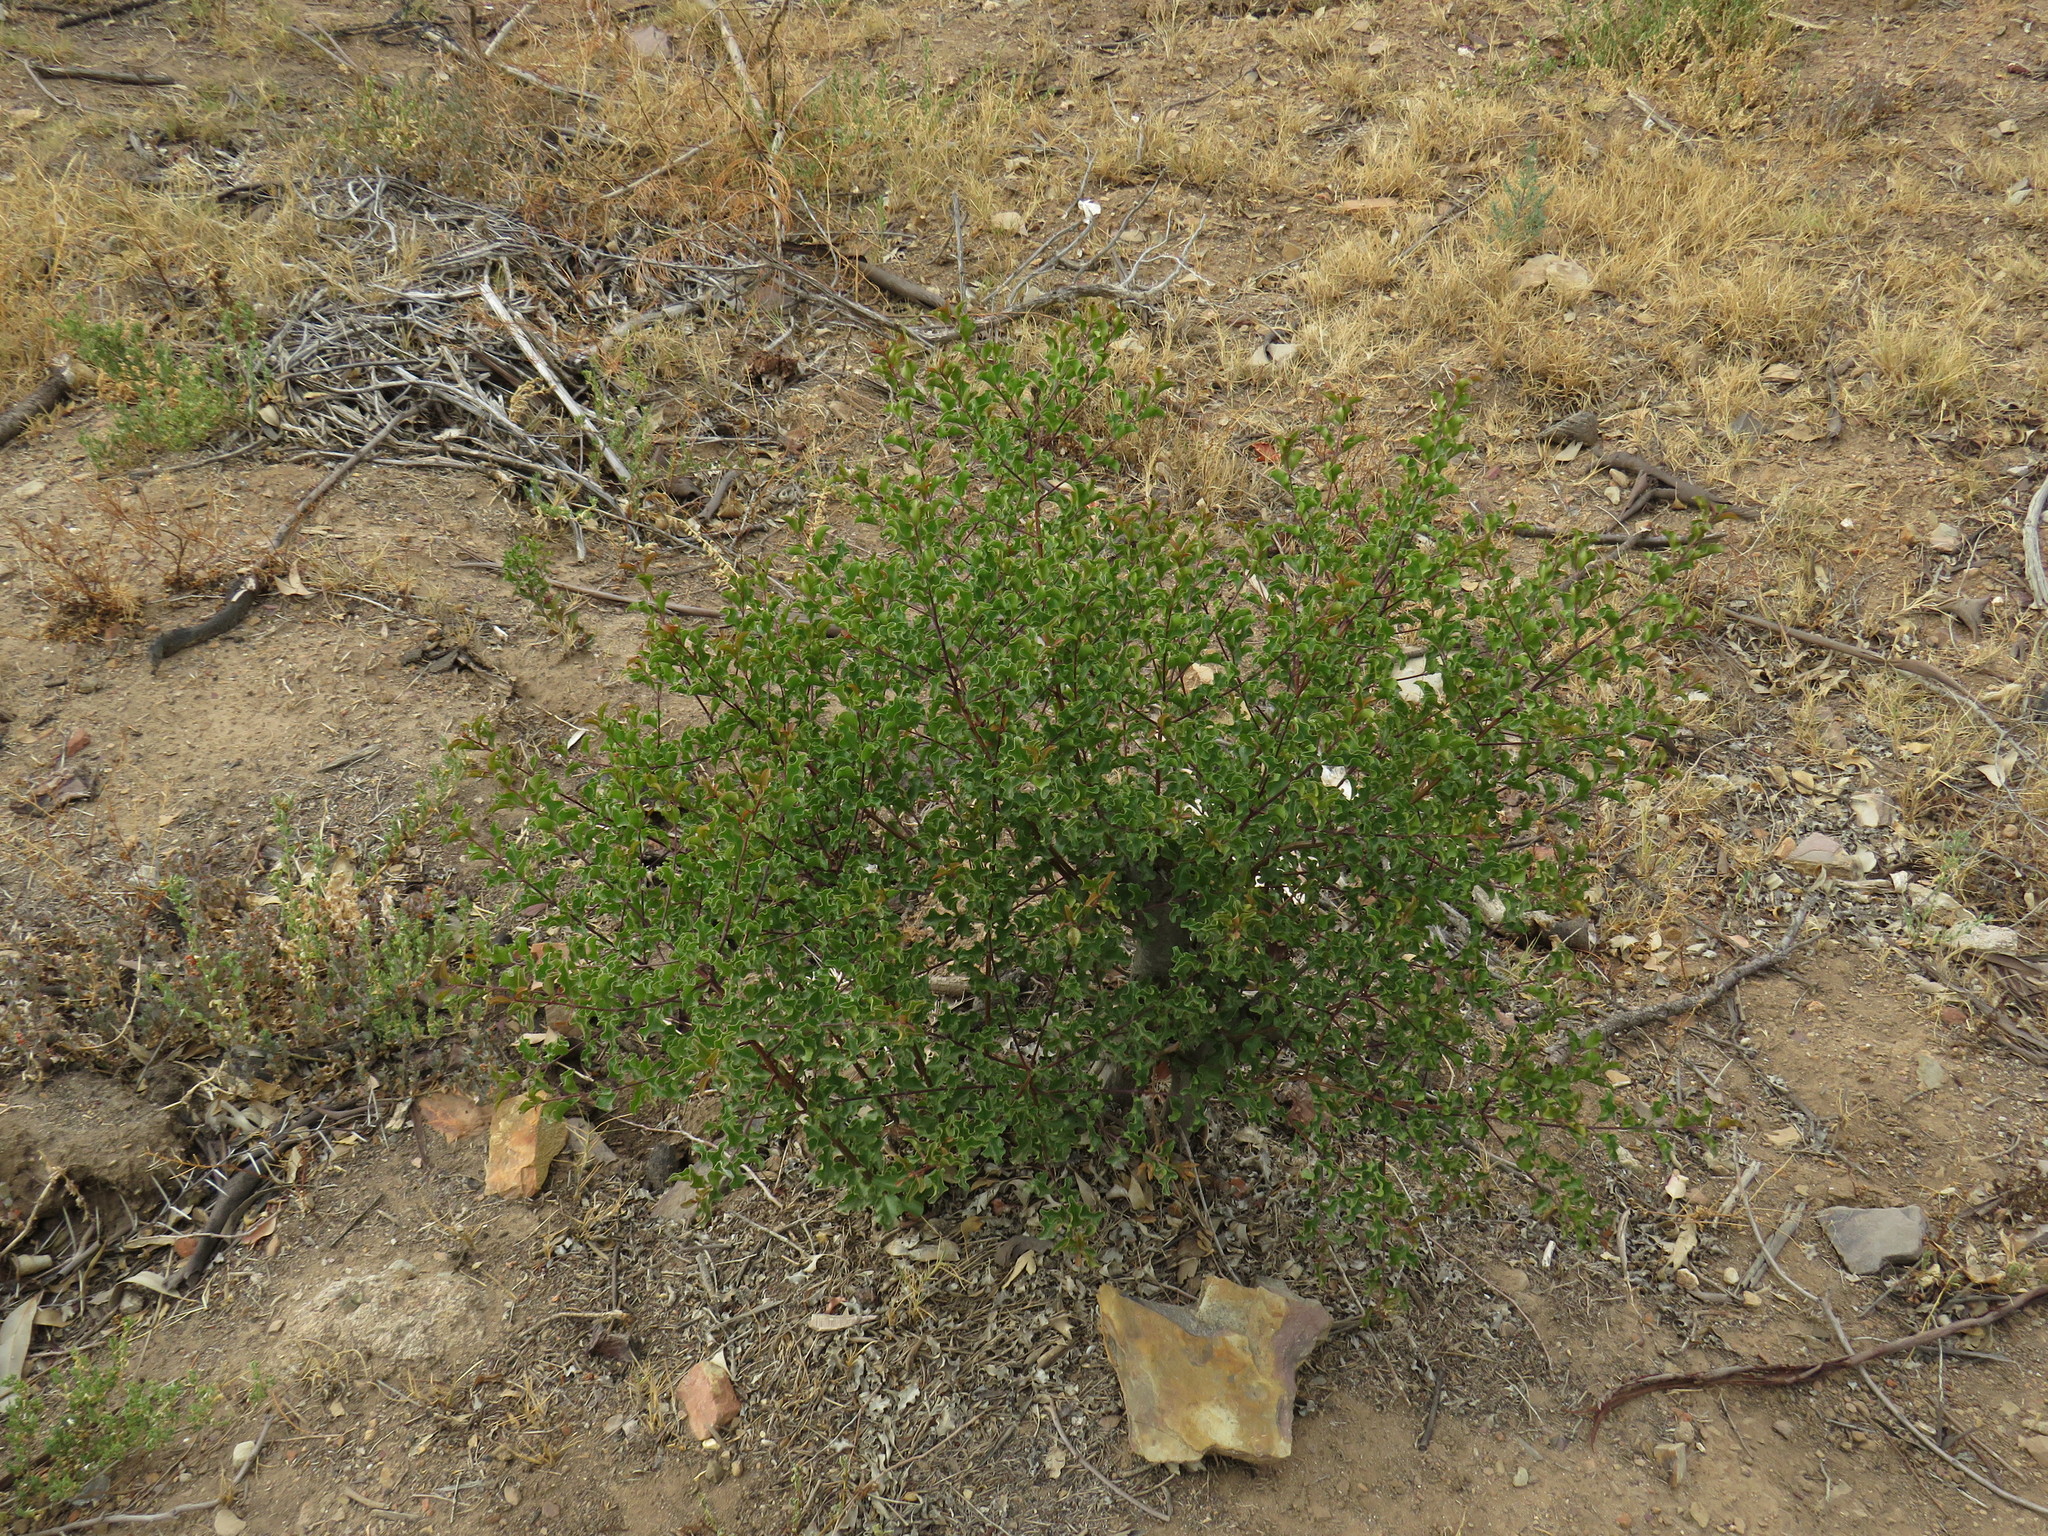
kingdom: Plantae
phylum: Tracheophyta
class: Magnoliopsida
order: Ericales
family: Ebenaceae
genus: Euclea
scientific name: Euclea undulata
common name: Small-leaved guarri
